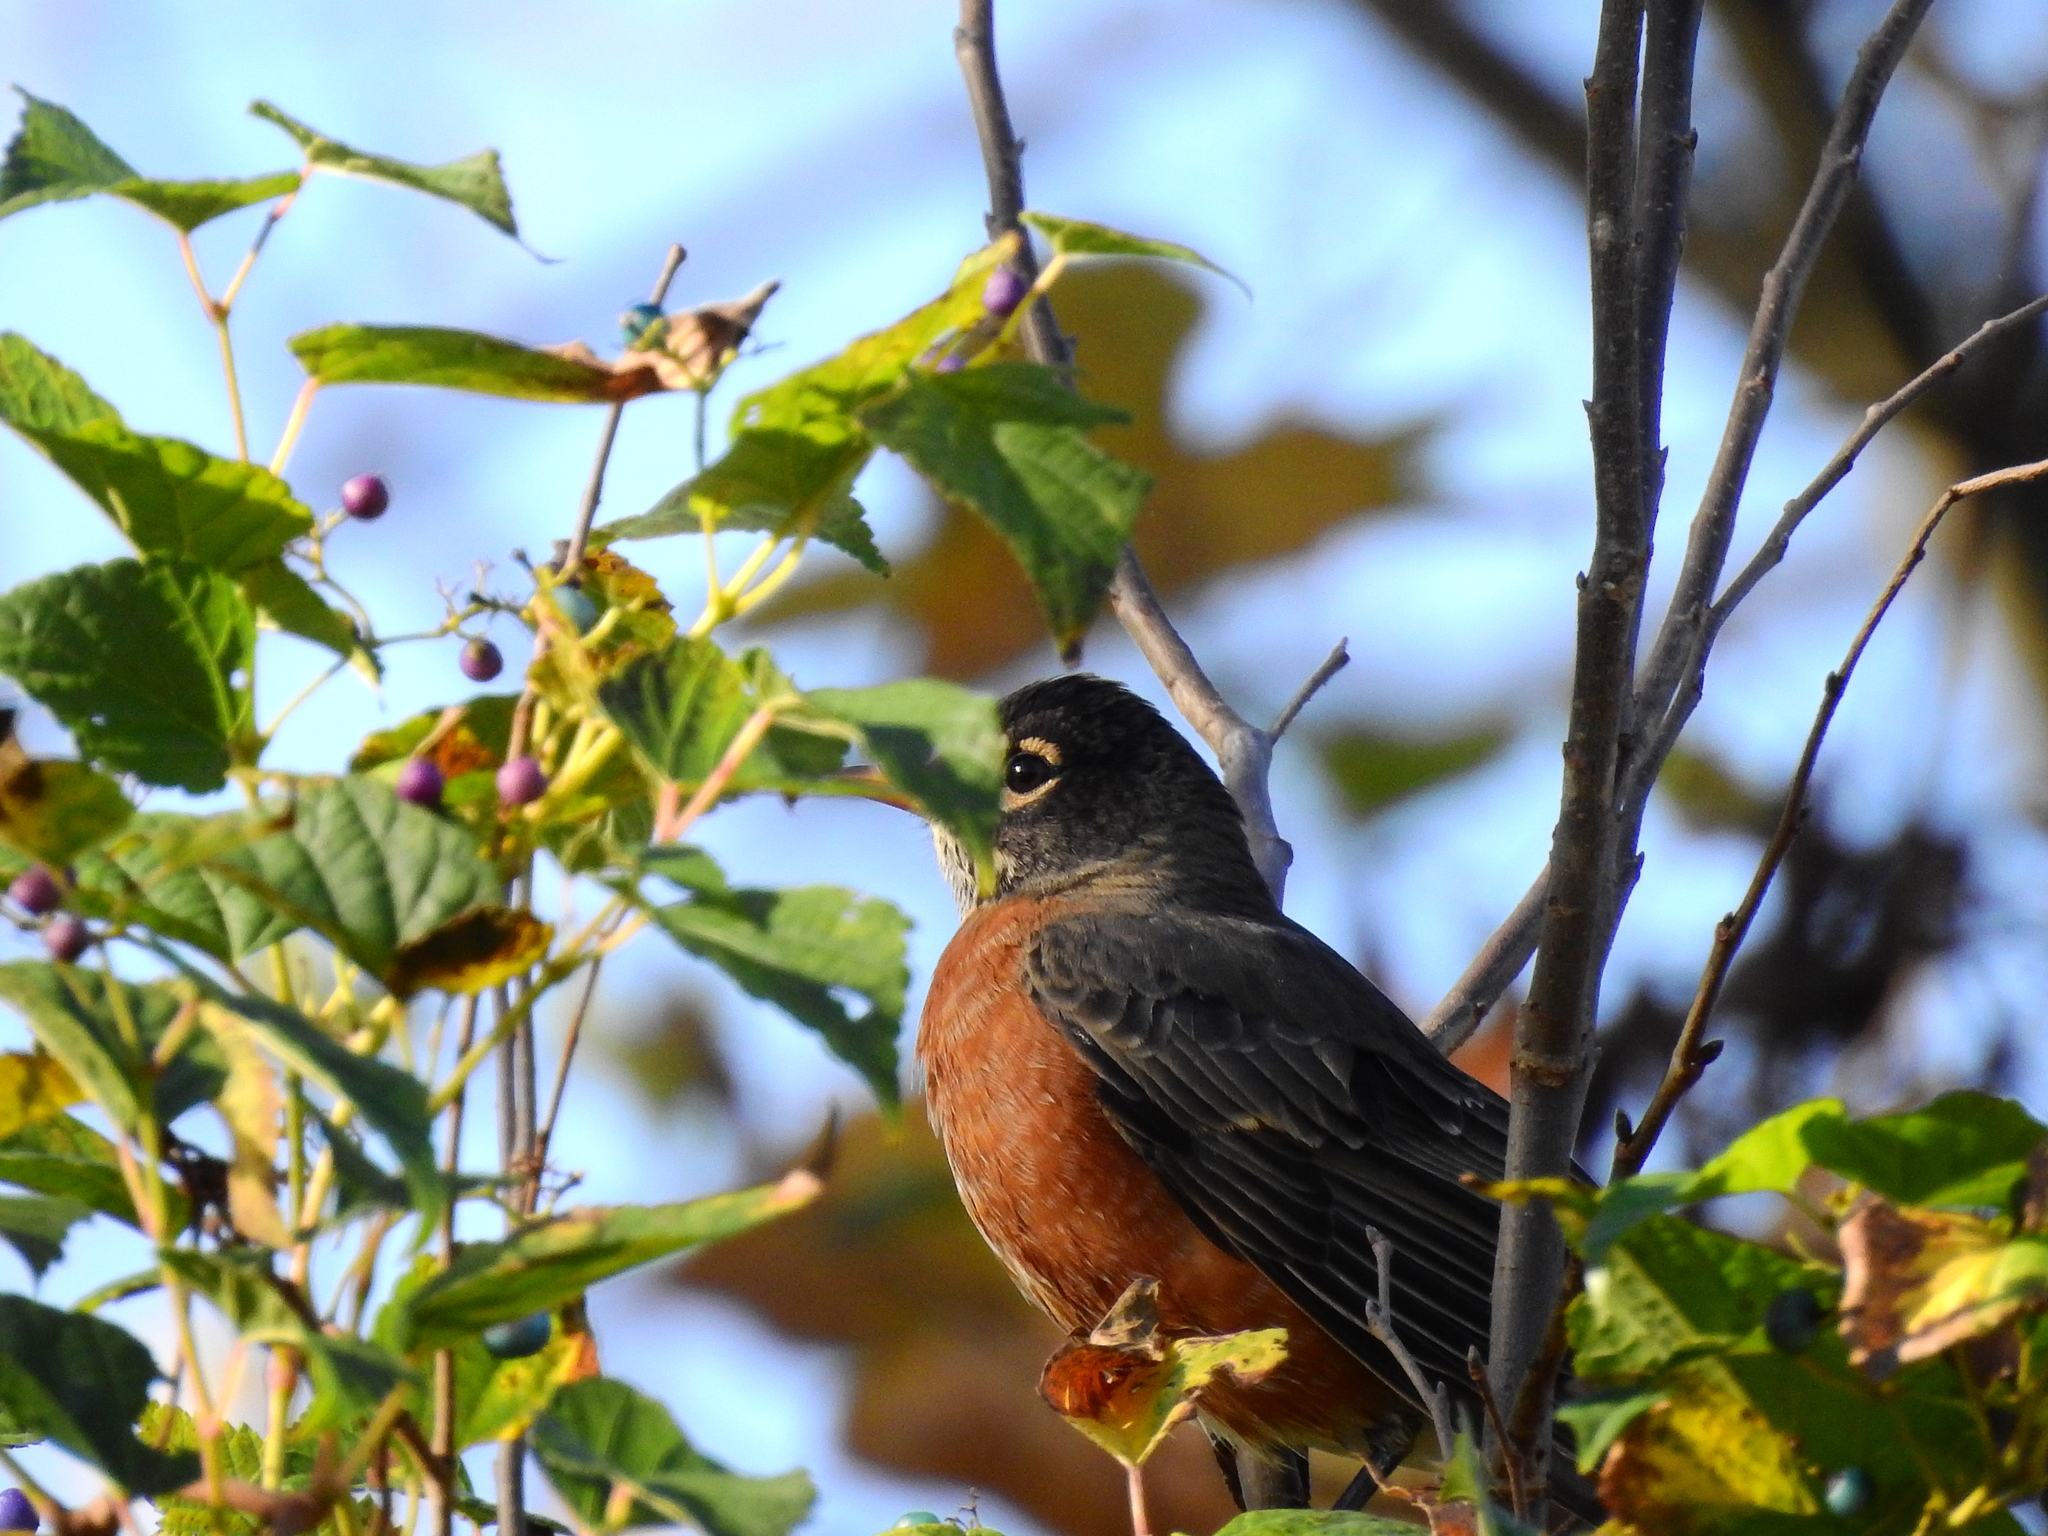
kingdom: Animalia
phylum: Chordata
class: Aves
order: Passeriformes
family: Turdidae
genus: Turdus
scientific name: Turdus migratorius
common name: American robin
